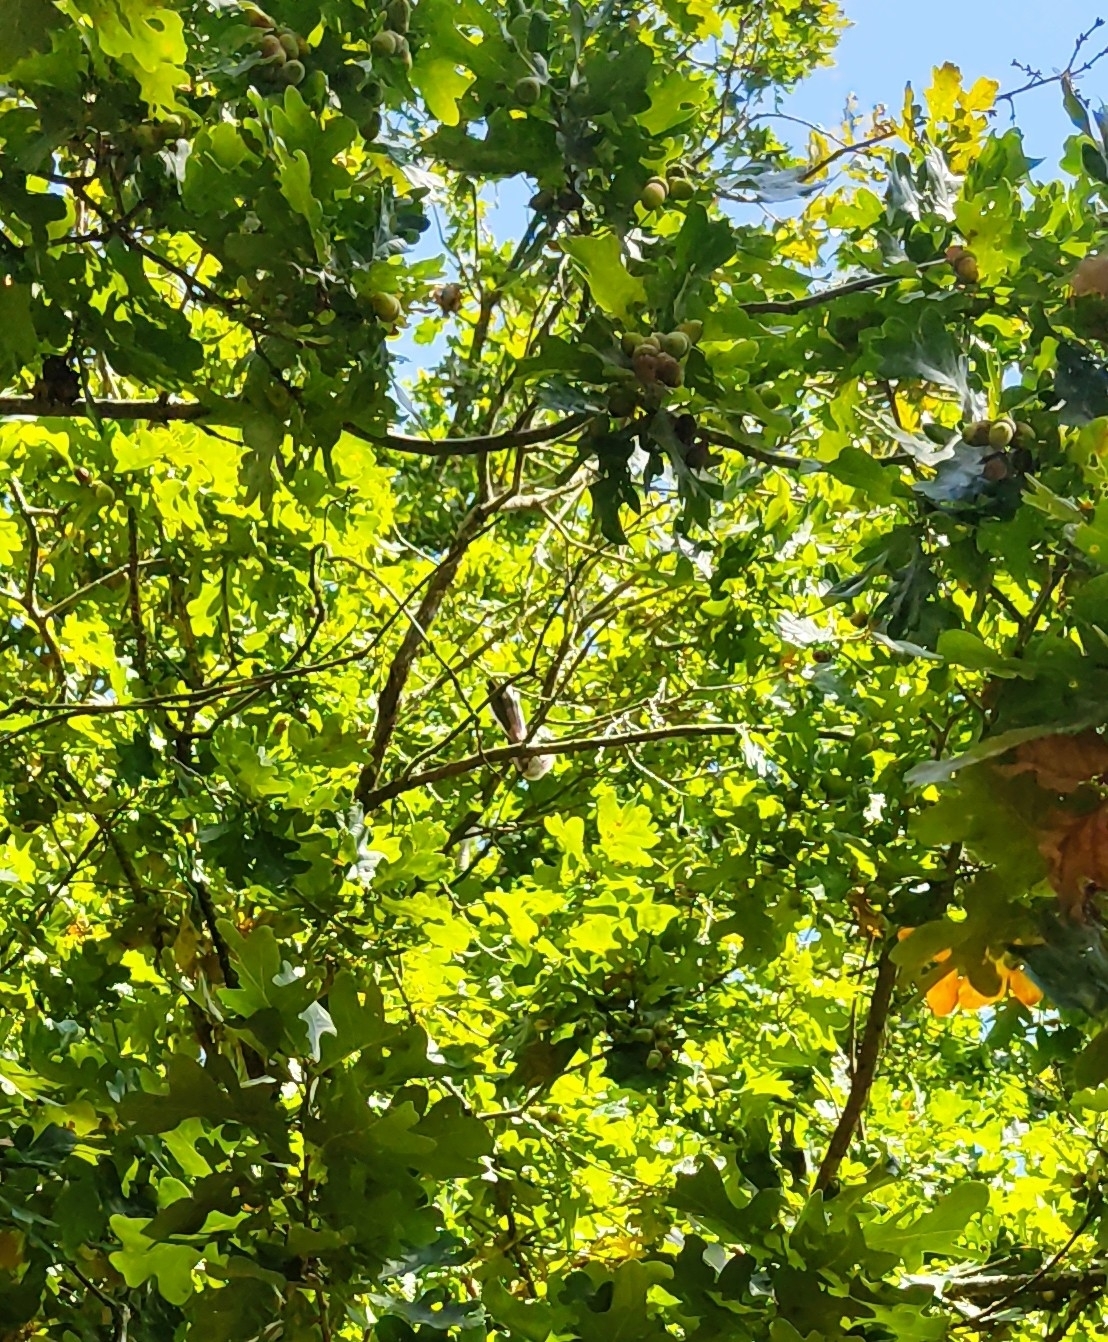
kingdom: Animalia
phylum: Chordata
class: Aves
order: Passeriformes
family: Aegithalidae
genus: Aegithalos
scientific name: Aegithalos caudatus
